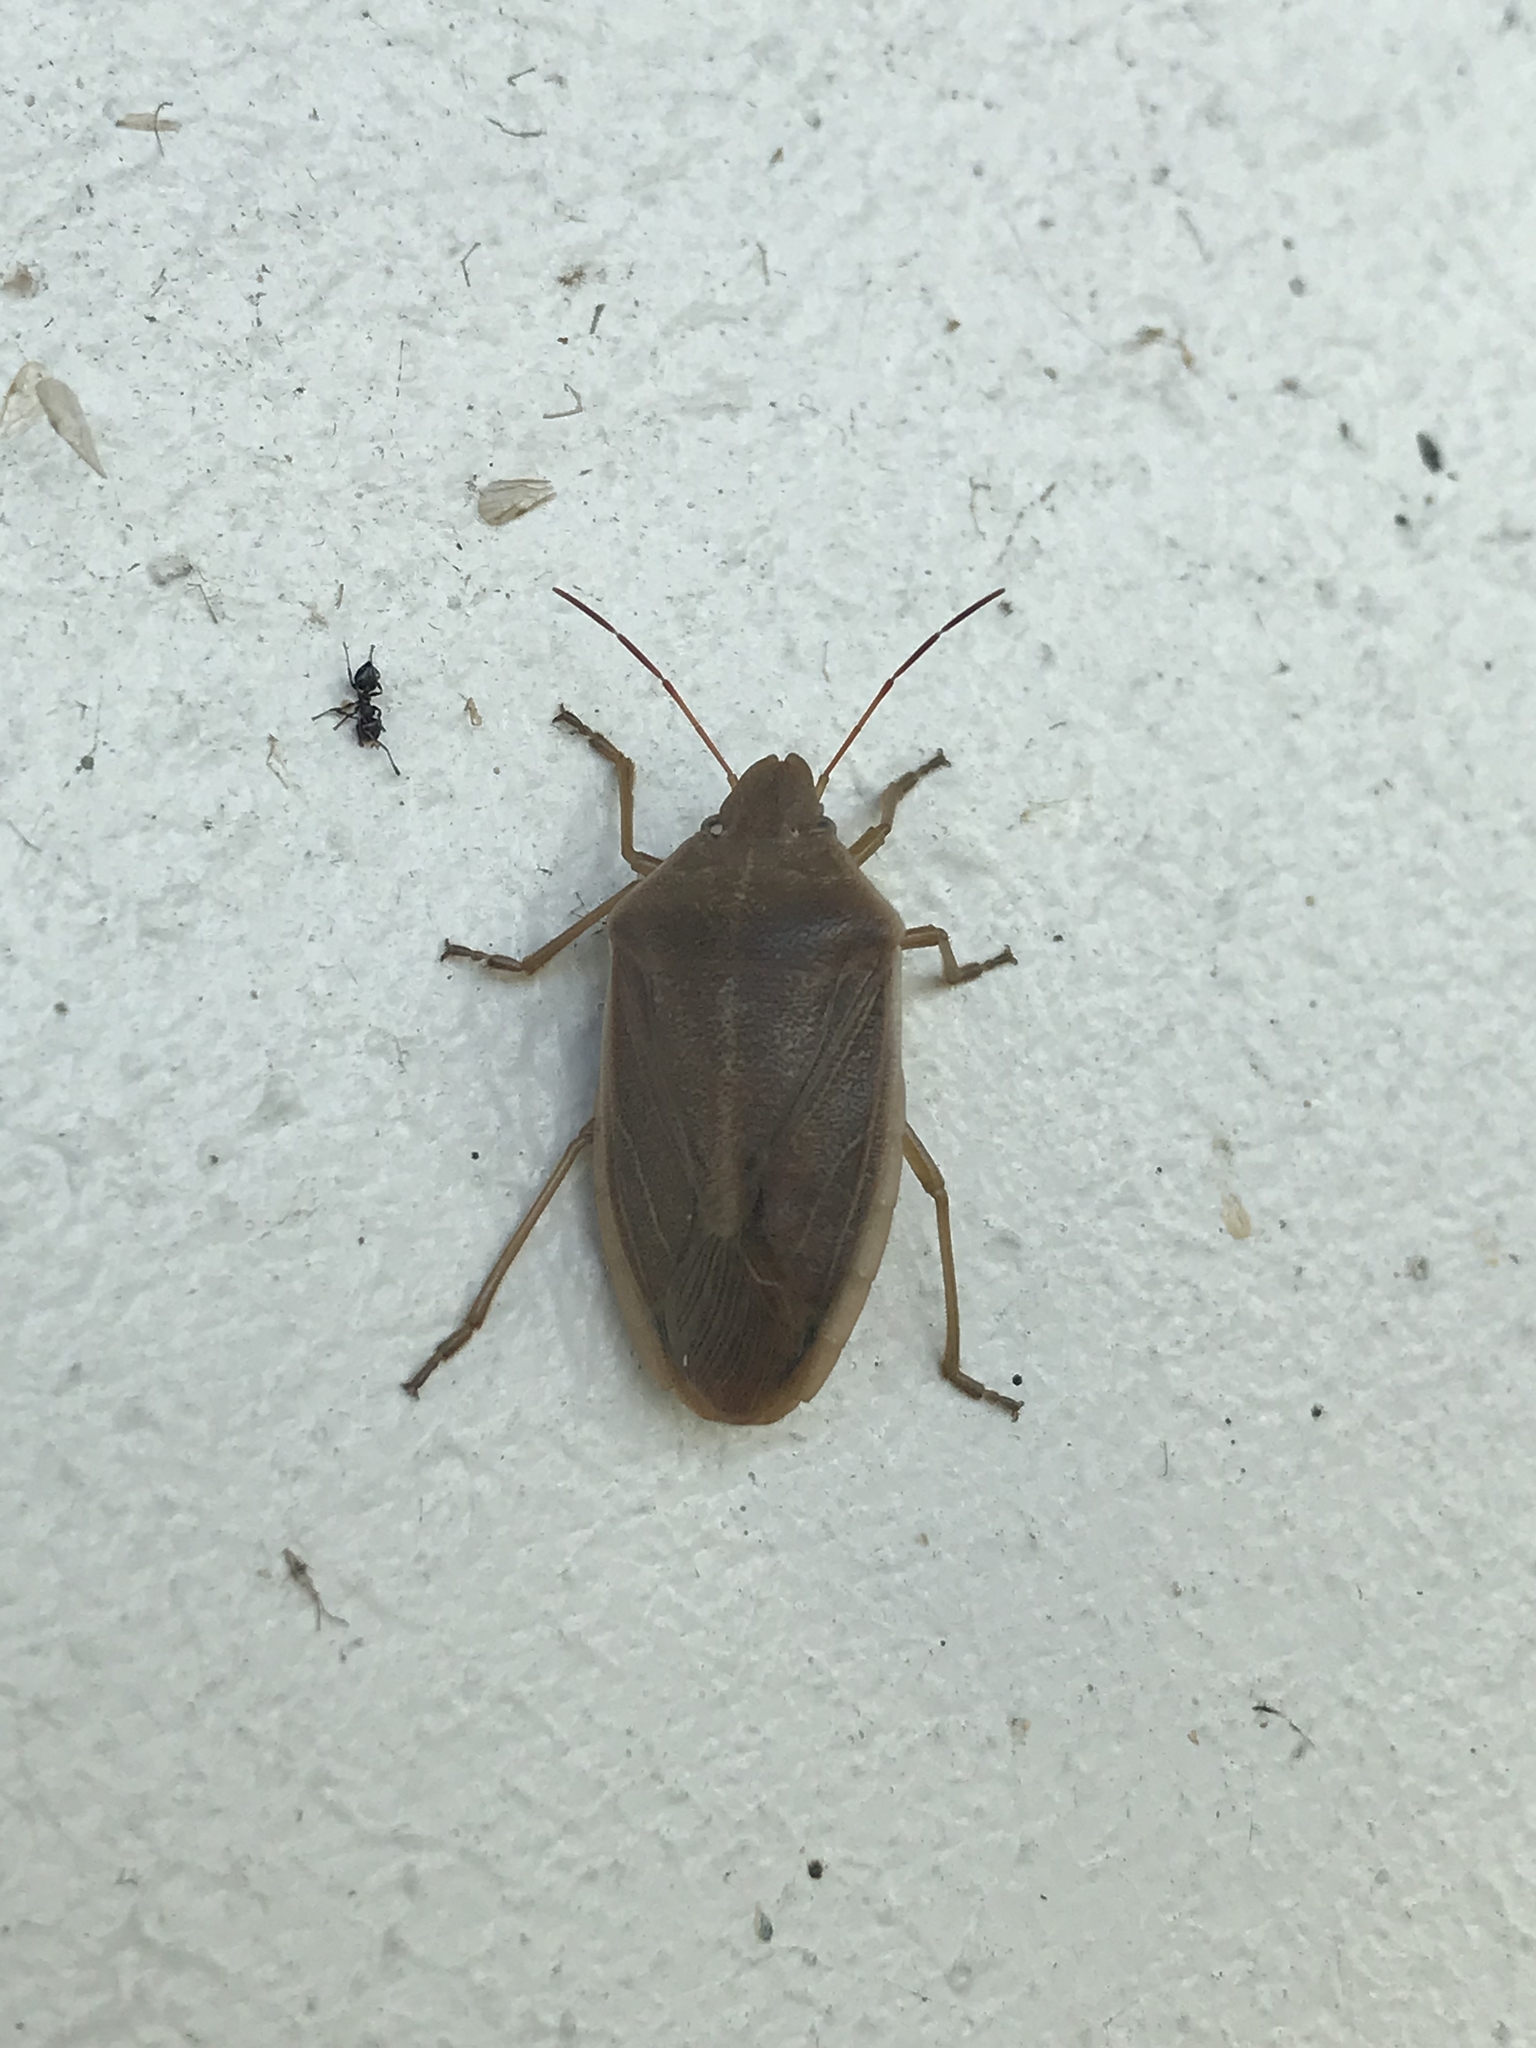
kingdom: Animalia
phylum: Arthropoda
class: Insecta
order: Hemiptera
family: Pentatomidae
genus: Chlorochroa
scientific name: Chlorochroa senilis
